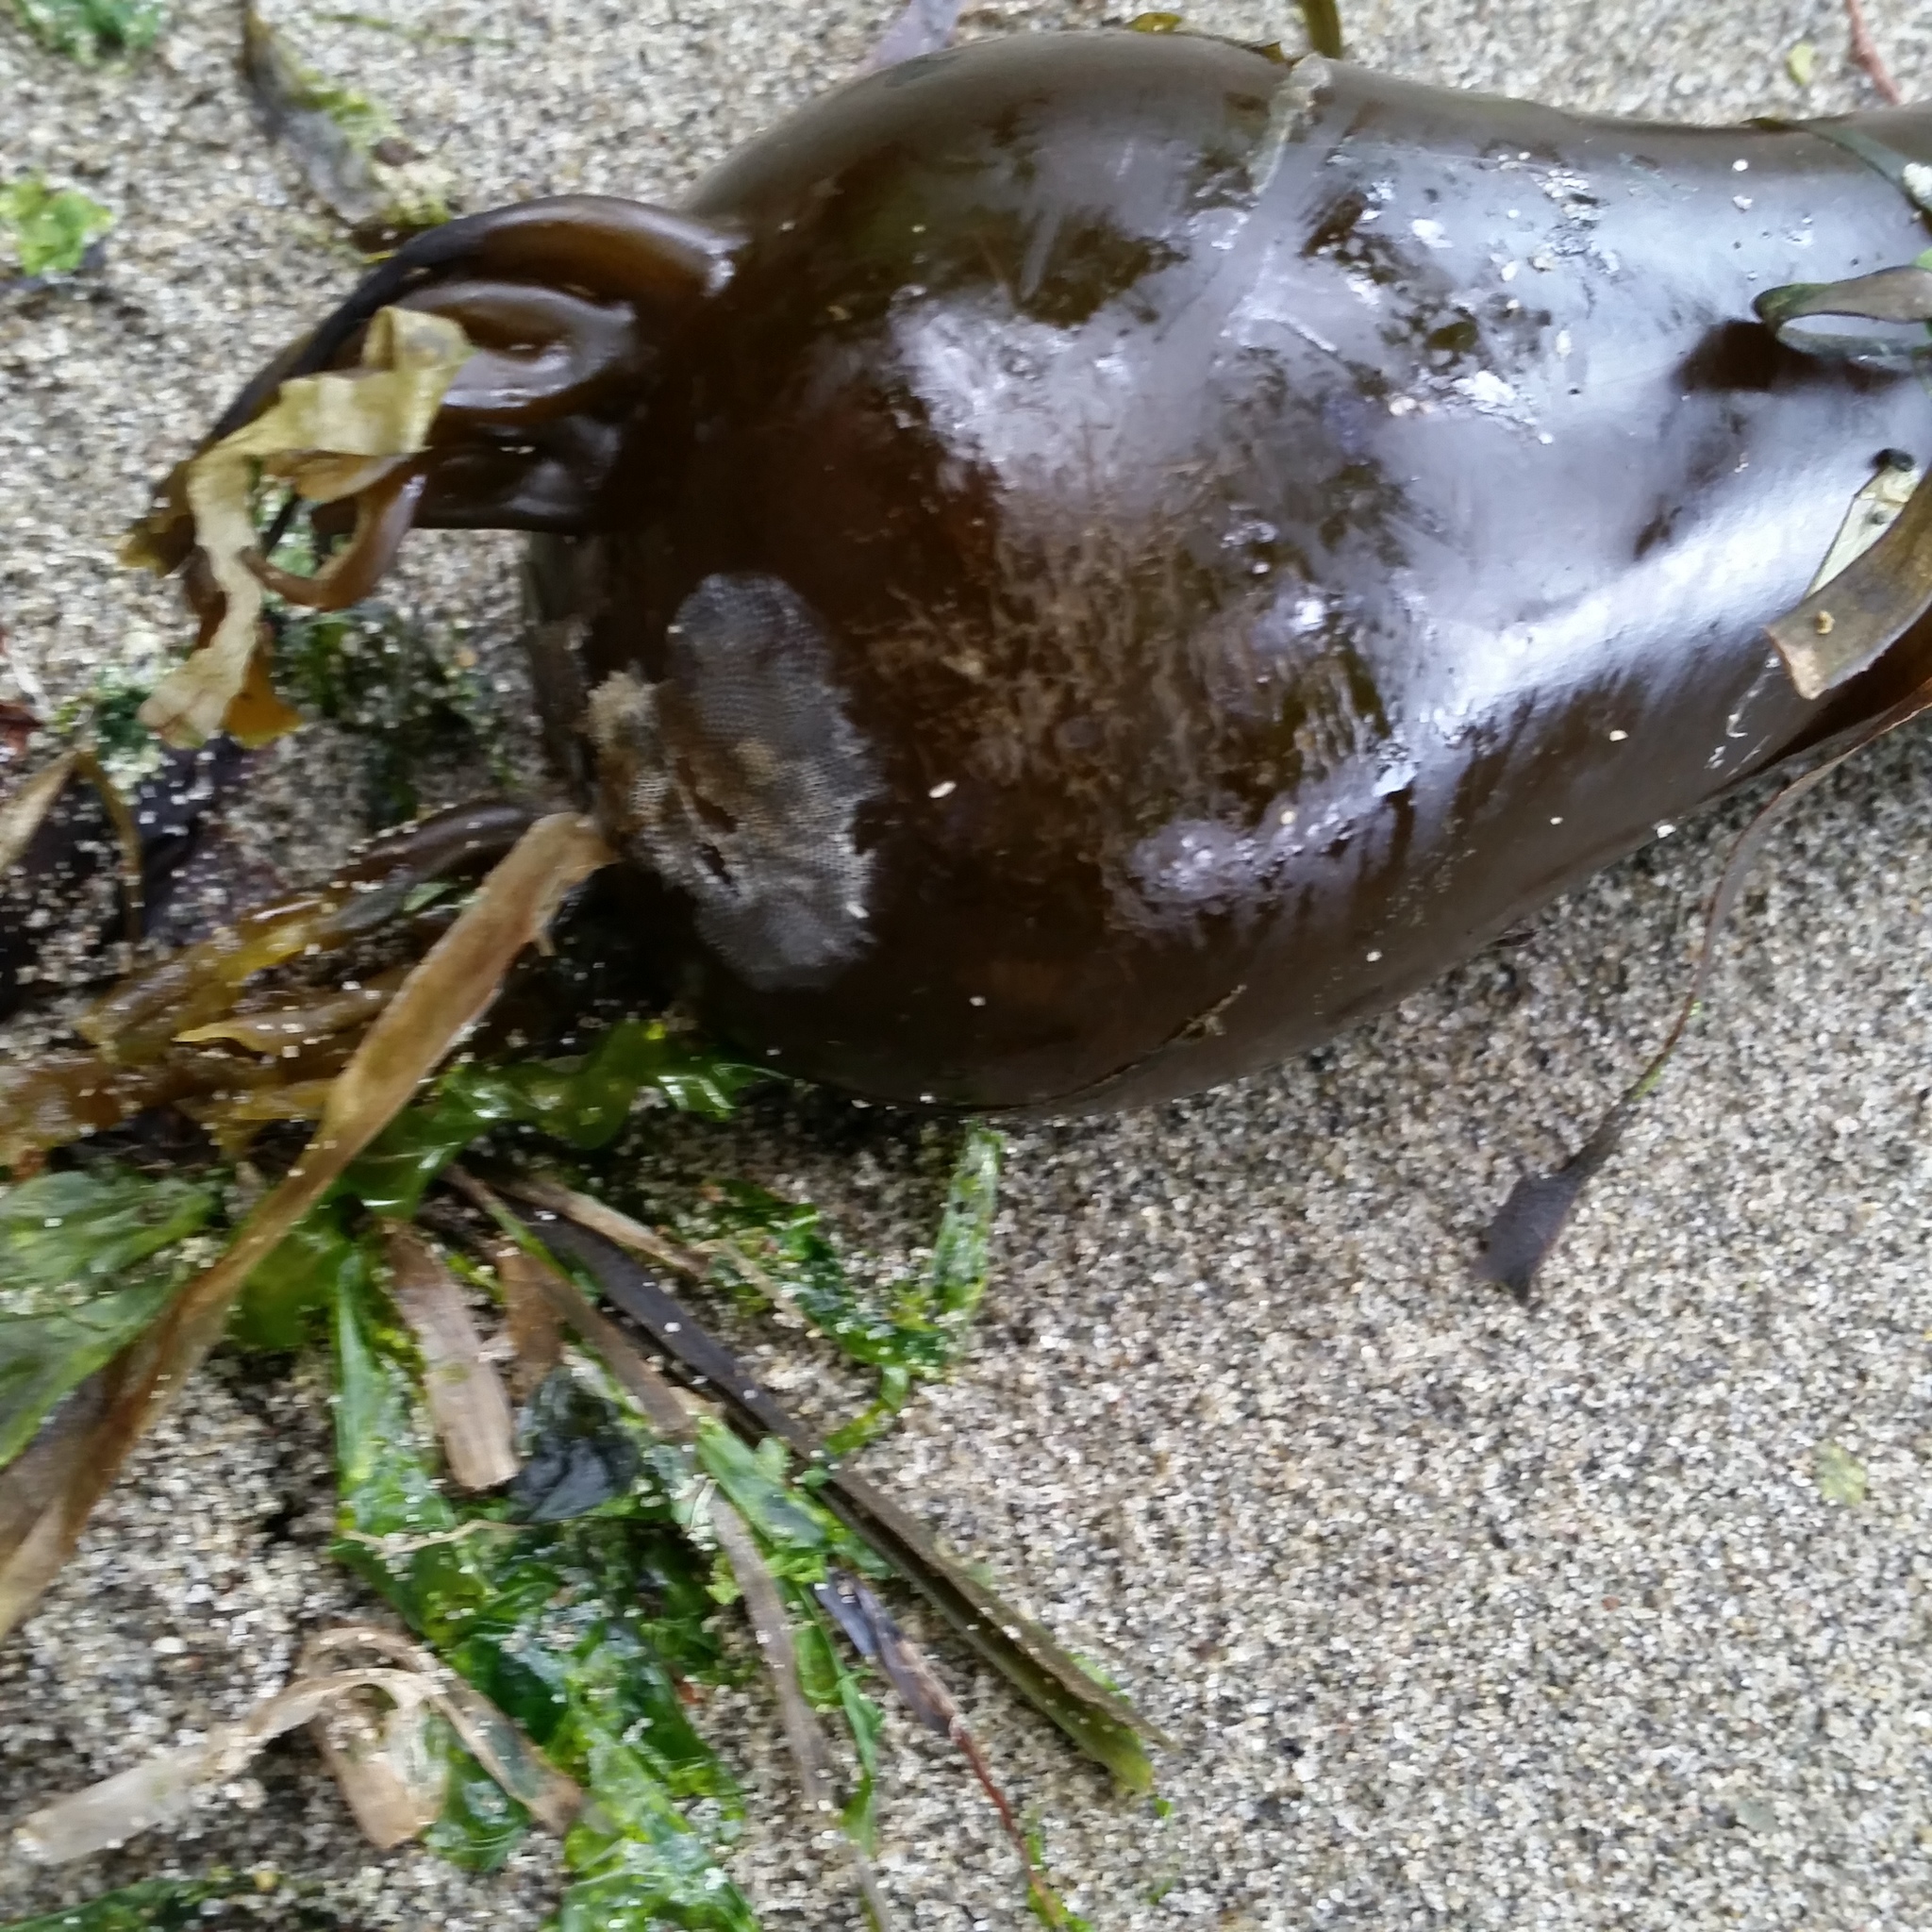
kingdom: Chromista
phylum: Ochrophyta
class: Phaeophyceae
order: Laminariales
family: Laminariaceae
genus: Nereocystis
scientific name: Nereocystis luetkeana
